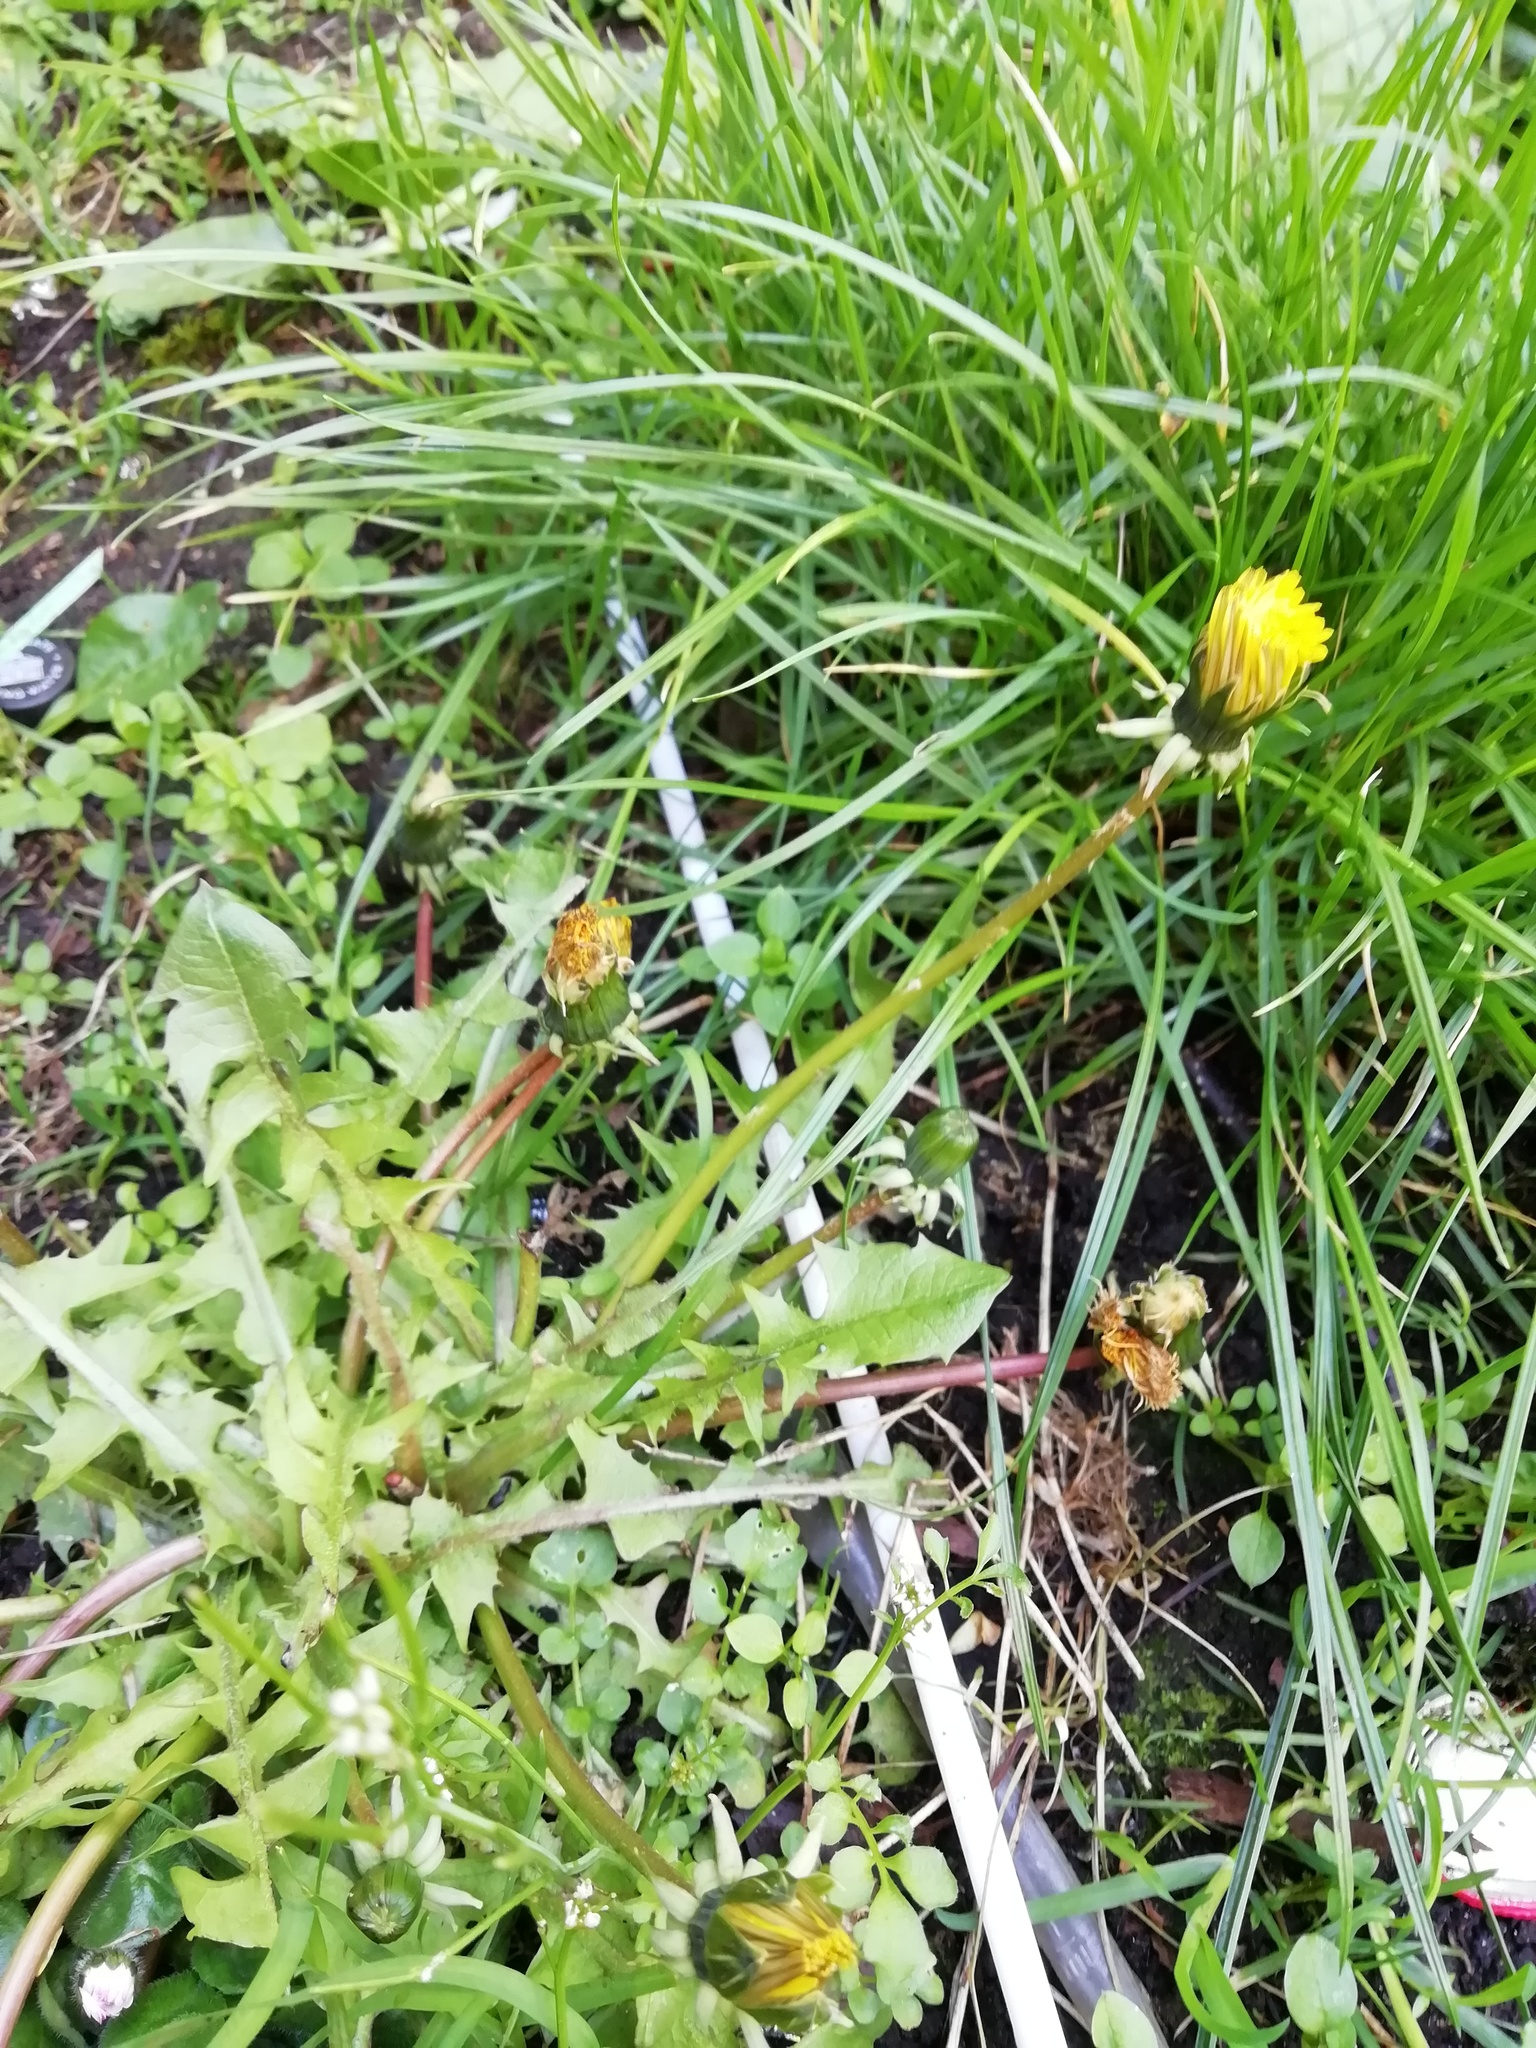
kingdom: Plantae
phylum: Tracheophyta
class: Magnoliopsida
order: Asterales
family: Asteraceae
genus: Taraxacum
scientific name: Taraxacum officinale
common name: Common dandelion
